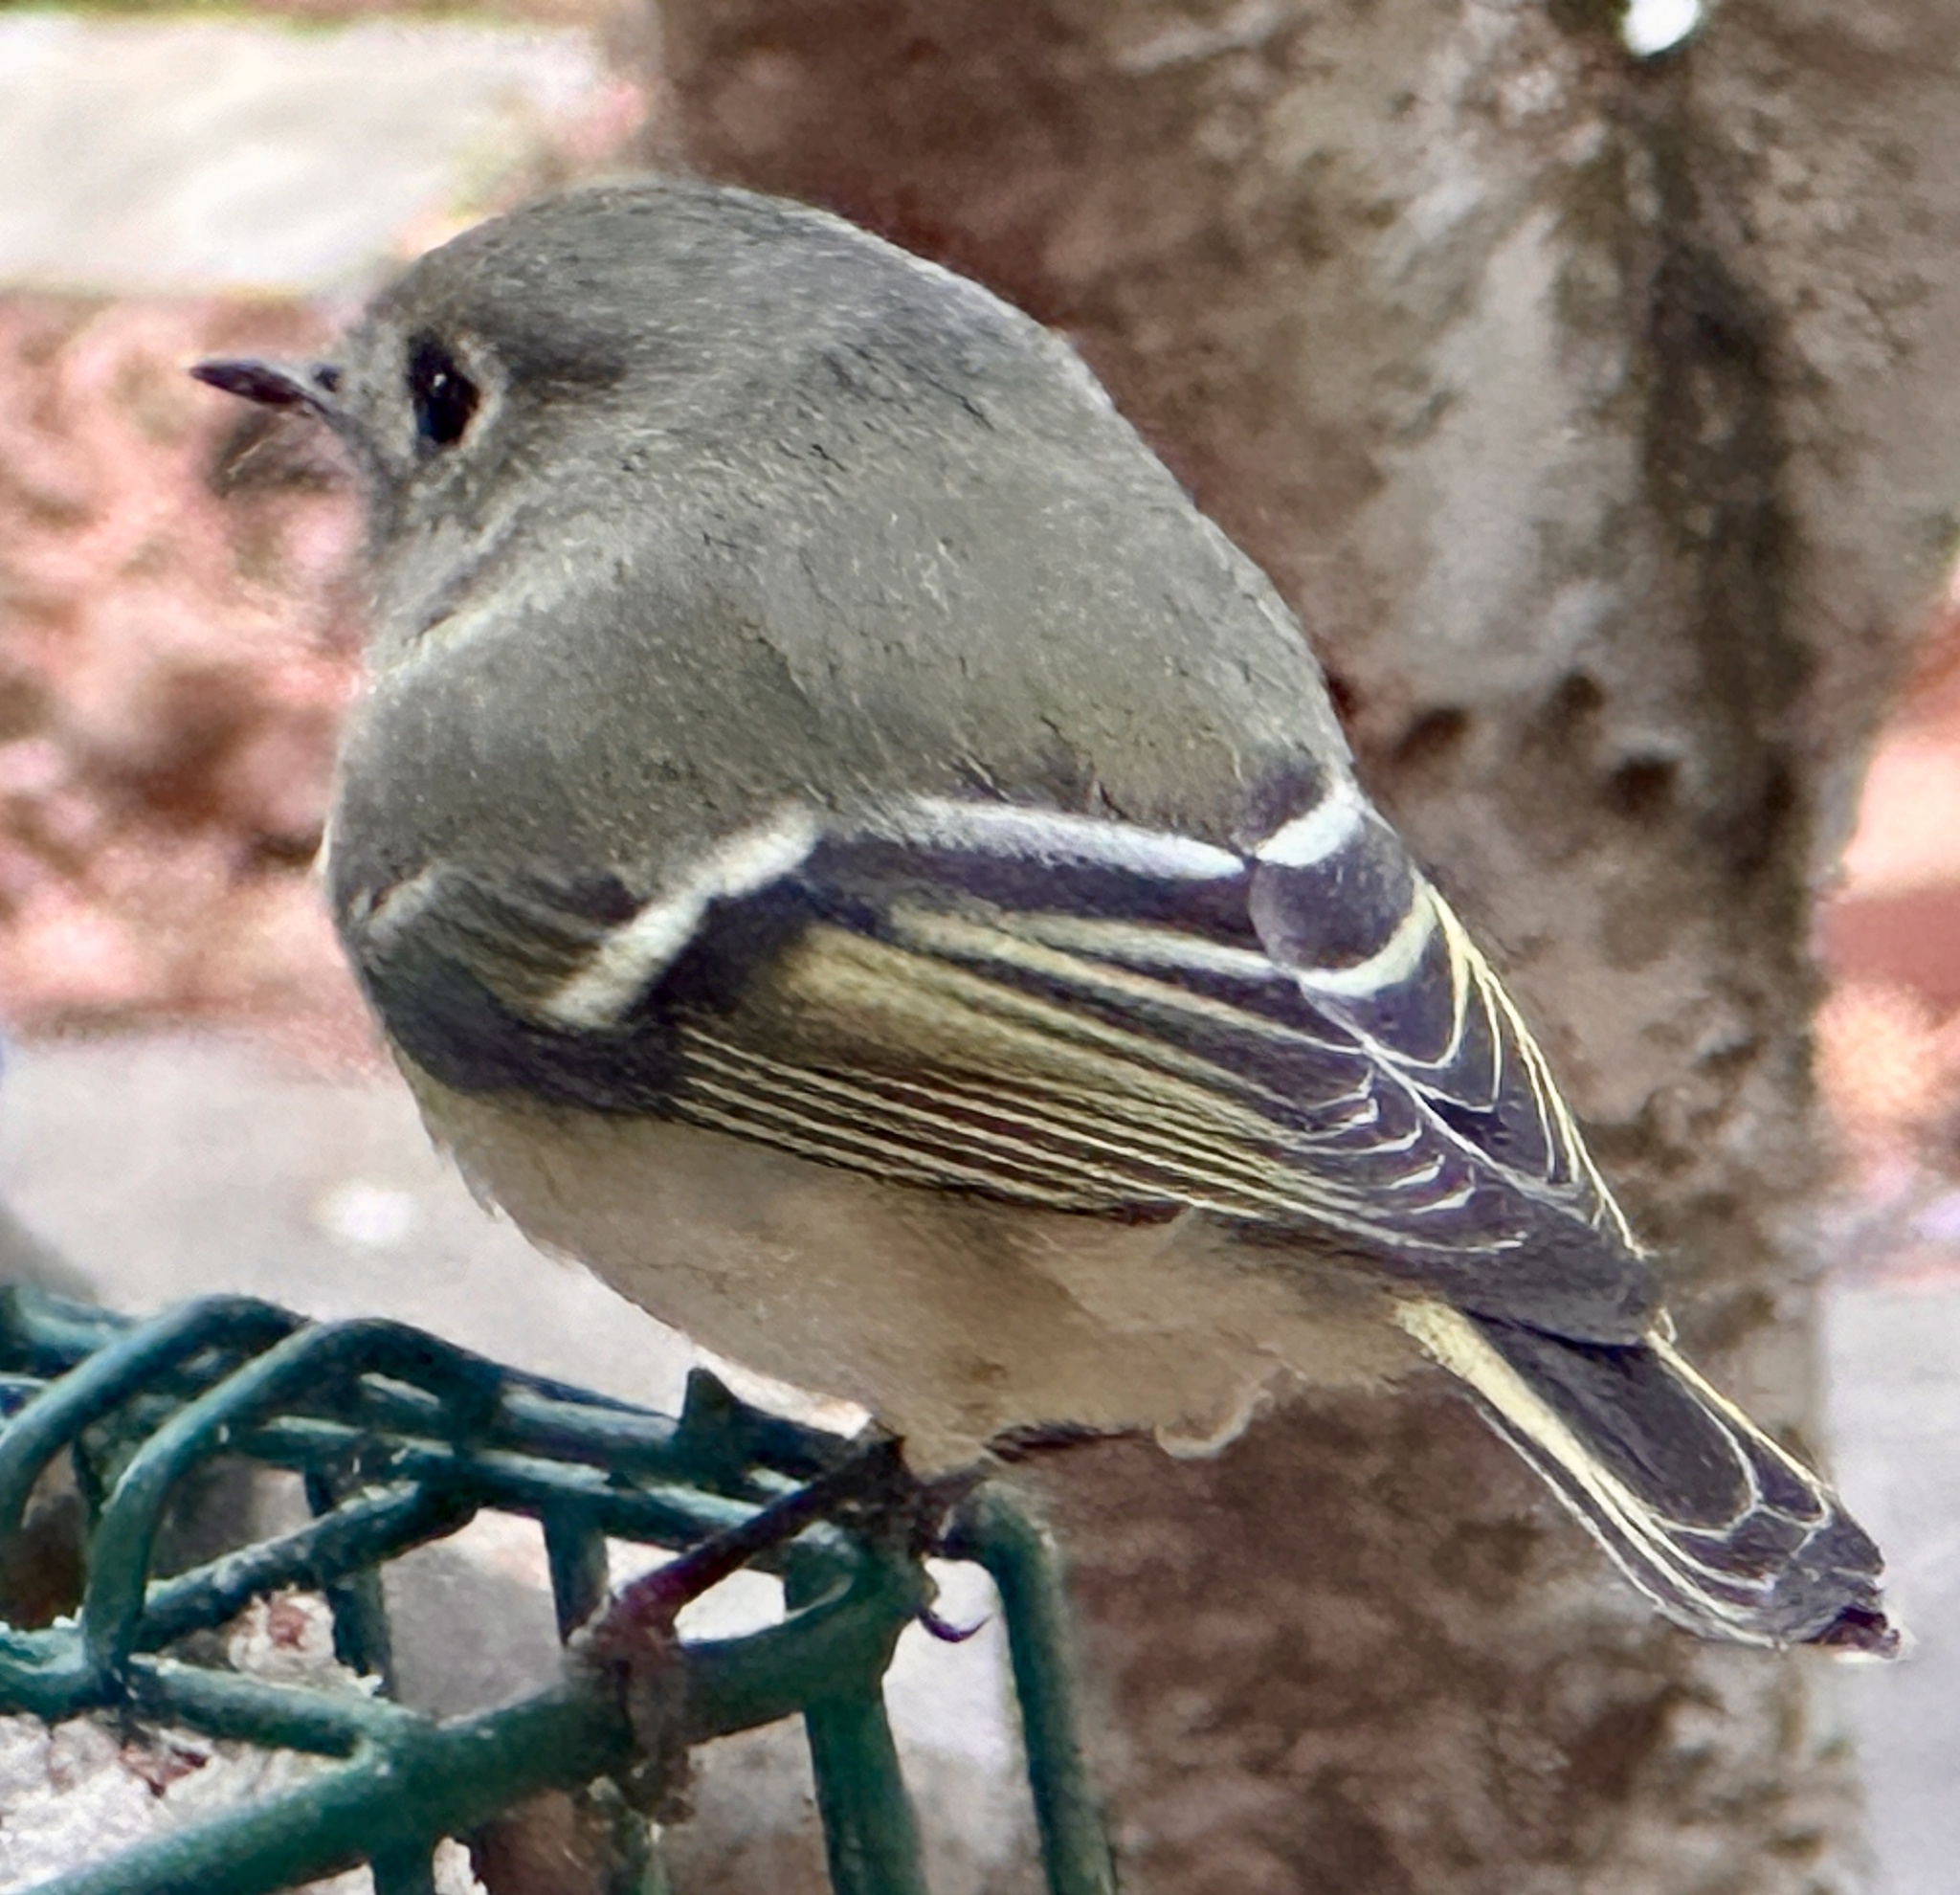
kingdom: Animalia
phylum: Chordata
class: Aves
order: Passeriformes
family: Regulidae
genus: Regulus
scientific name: Regulus calendula
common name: Ruby-crowned kinglet
